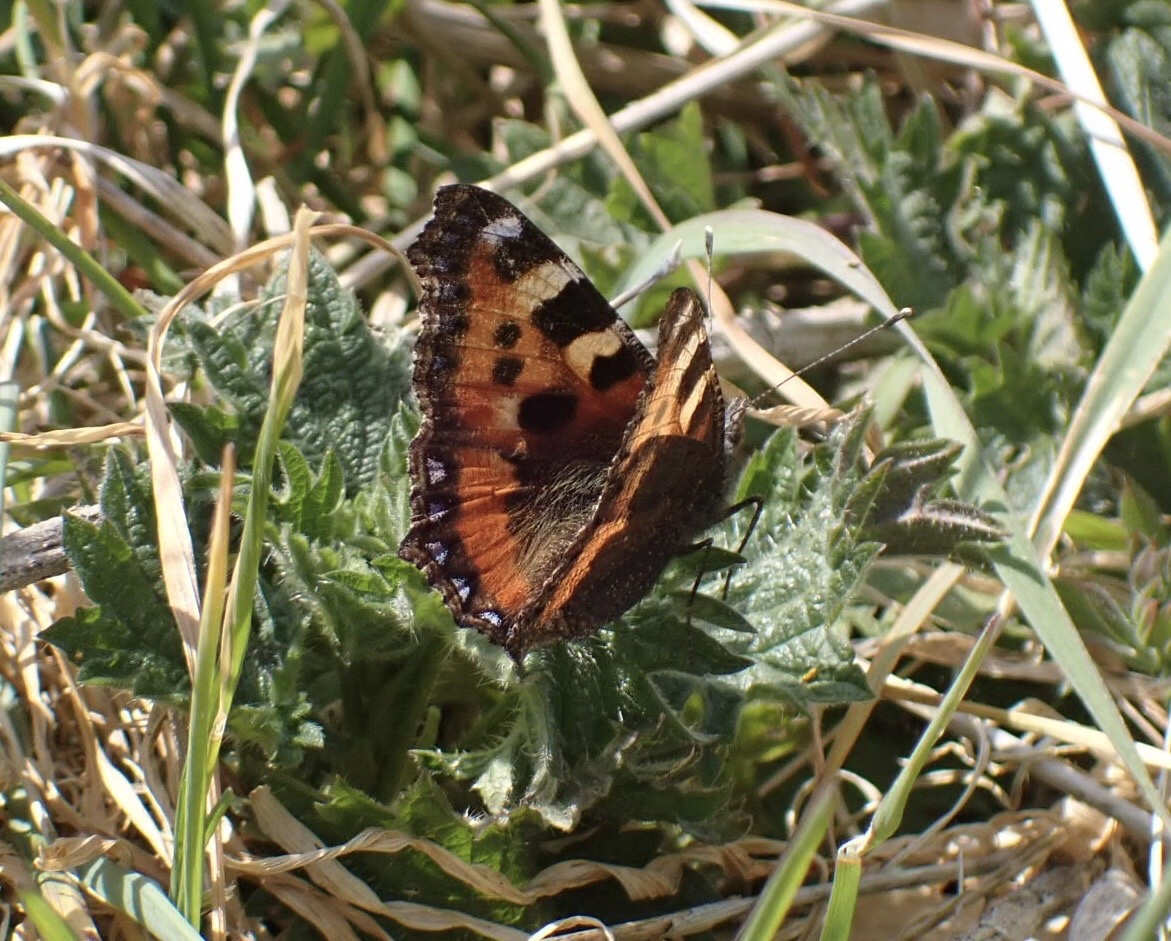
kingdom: Animalia
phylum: Arthropoda
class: Insecta
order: Lepidoptera
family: Nymphalidae
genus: Aglais
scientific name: Aglais urticae
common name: Small tortoiseshell
